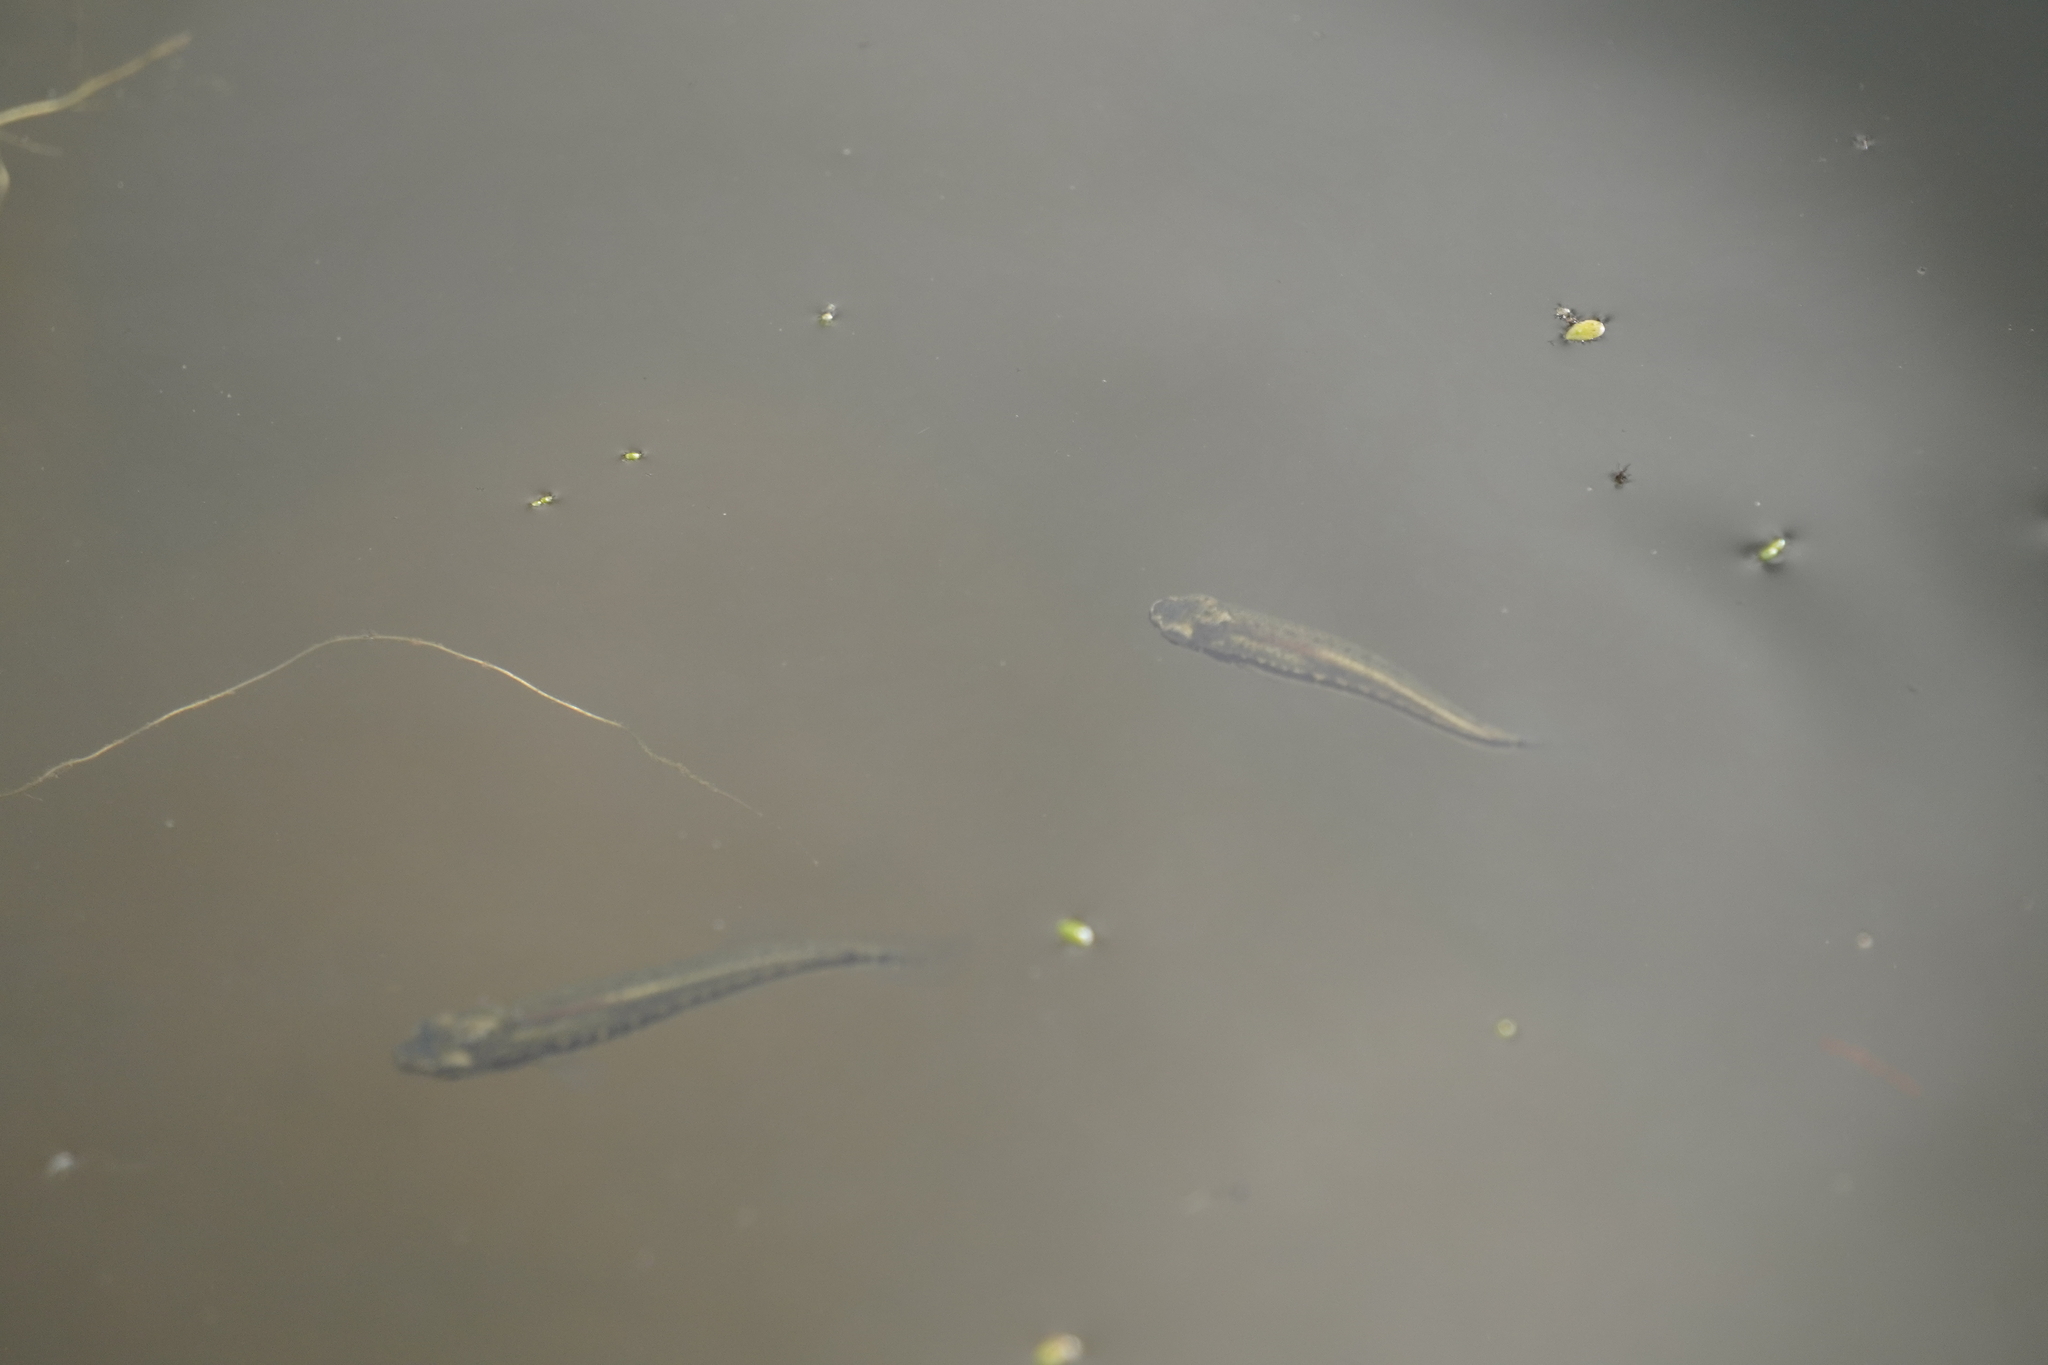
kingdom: Animalia
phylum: Chordata
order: Cyprinodontiformes
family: Fundulidae
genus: Fundulus
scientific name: Fundulus notatus
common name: Blackstripe topminnow
